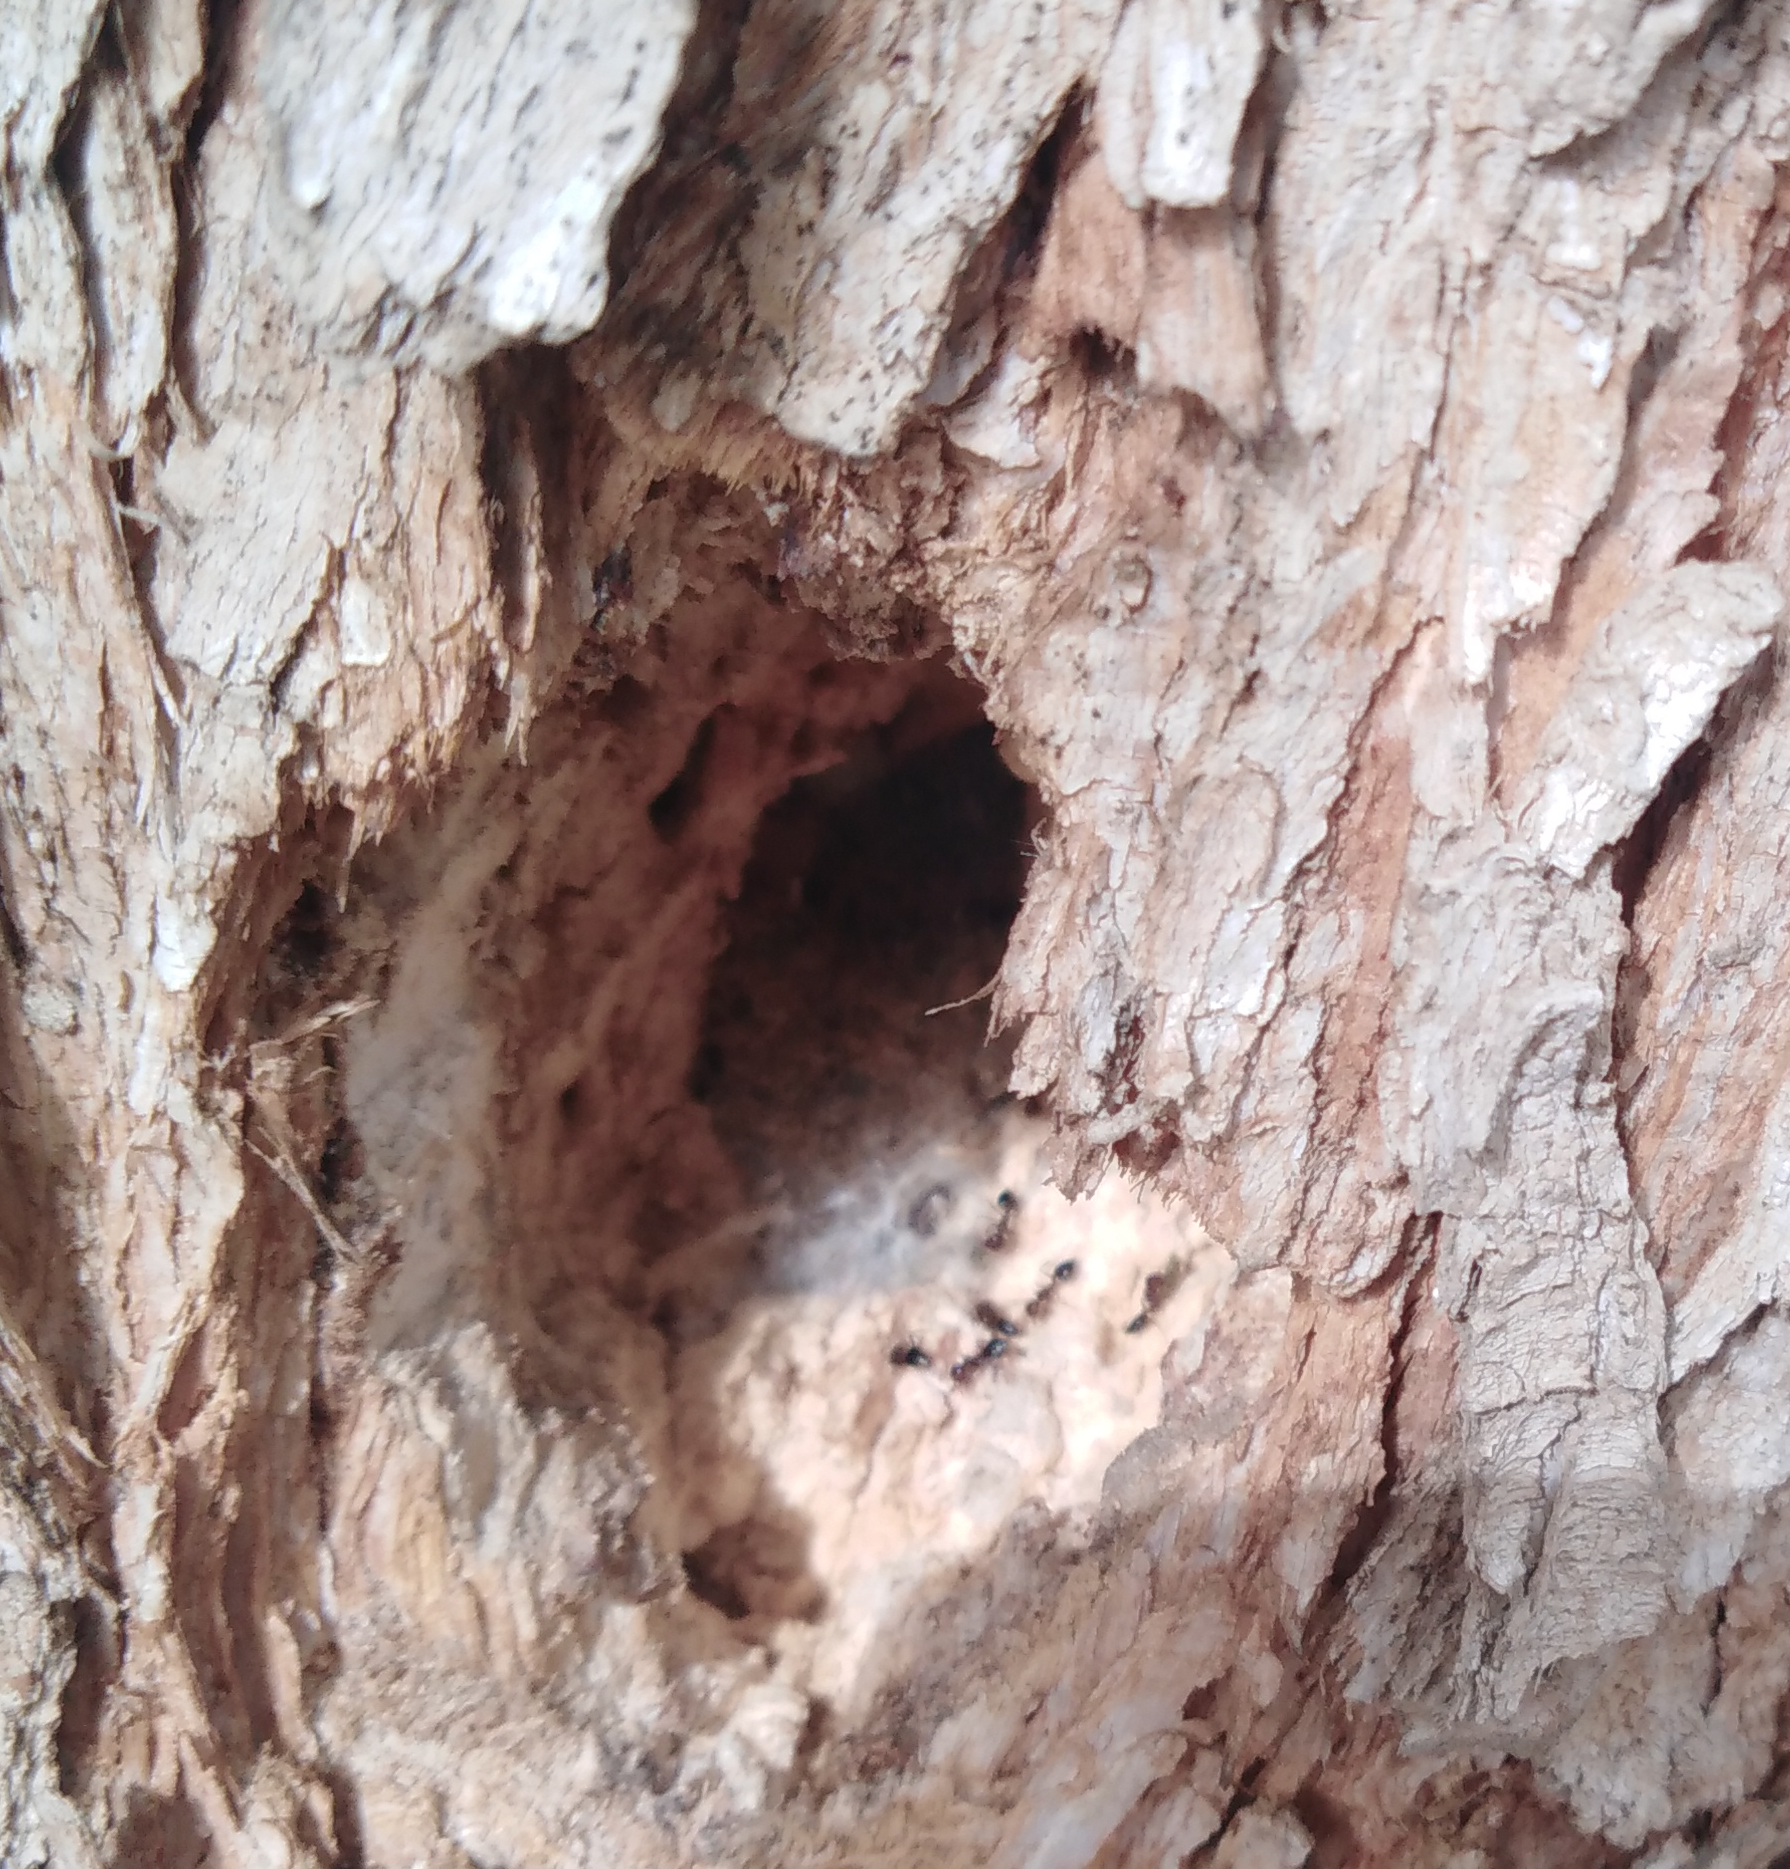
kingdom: Animalia
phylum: Arthropoda
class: Insecta
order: Hymenoptera
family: Formicidae
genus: Crematogaster
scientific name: Crematogaster subdentata
